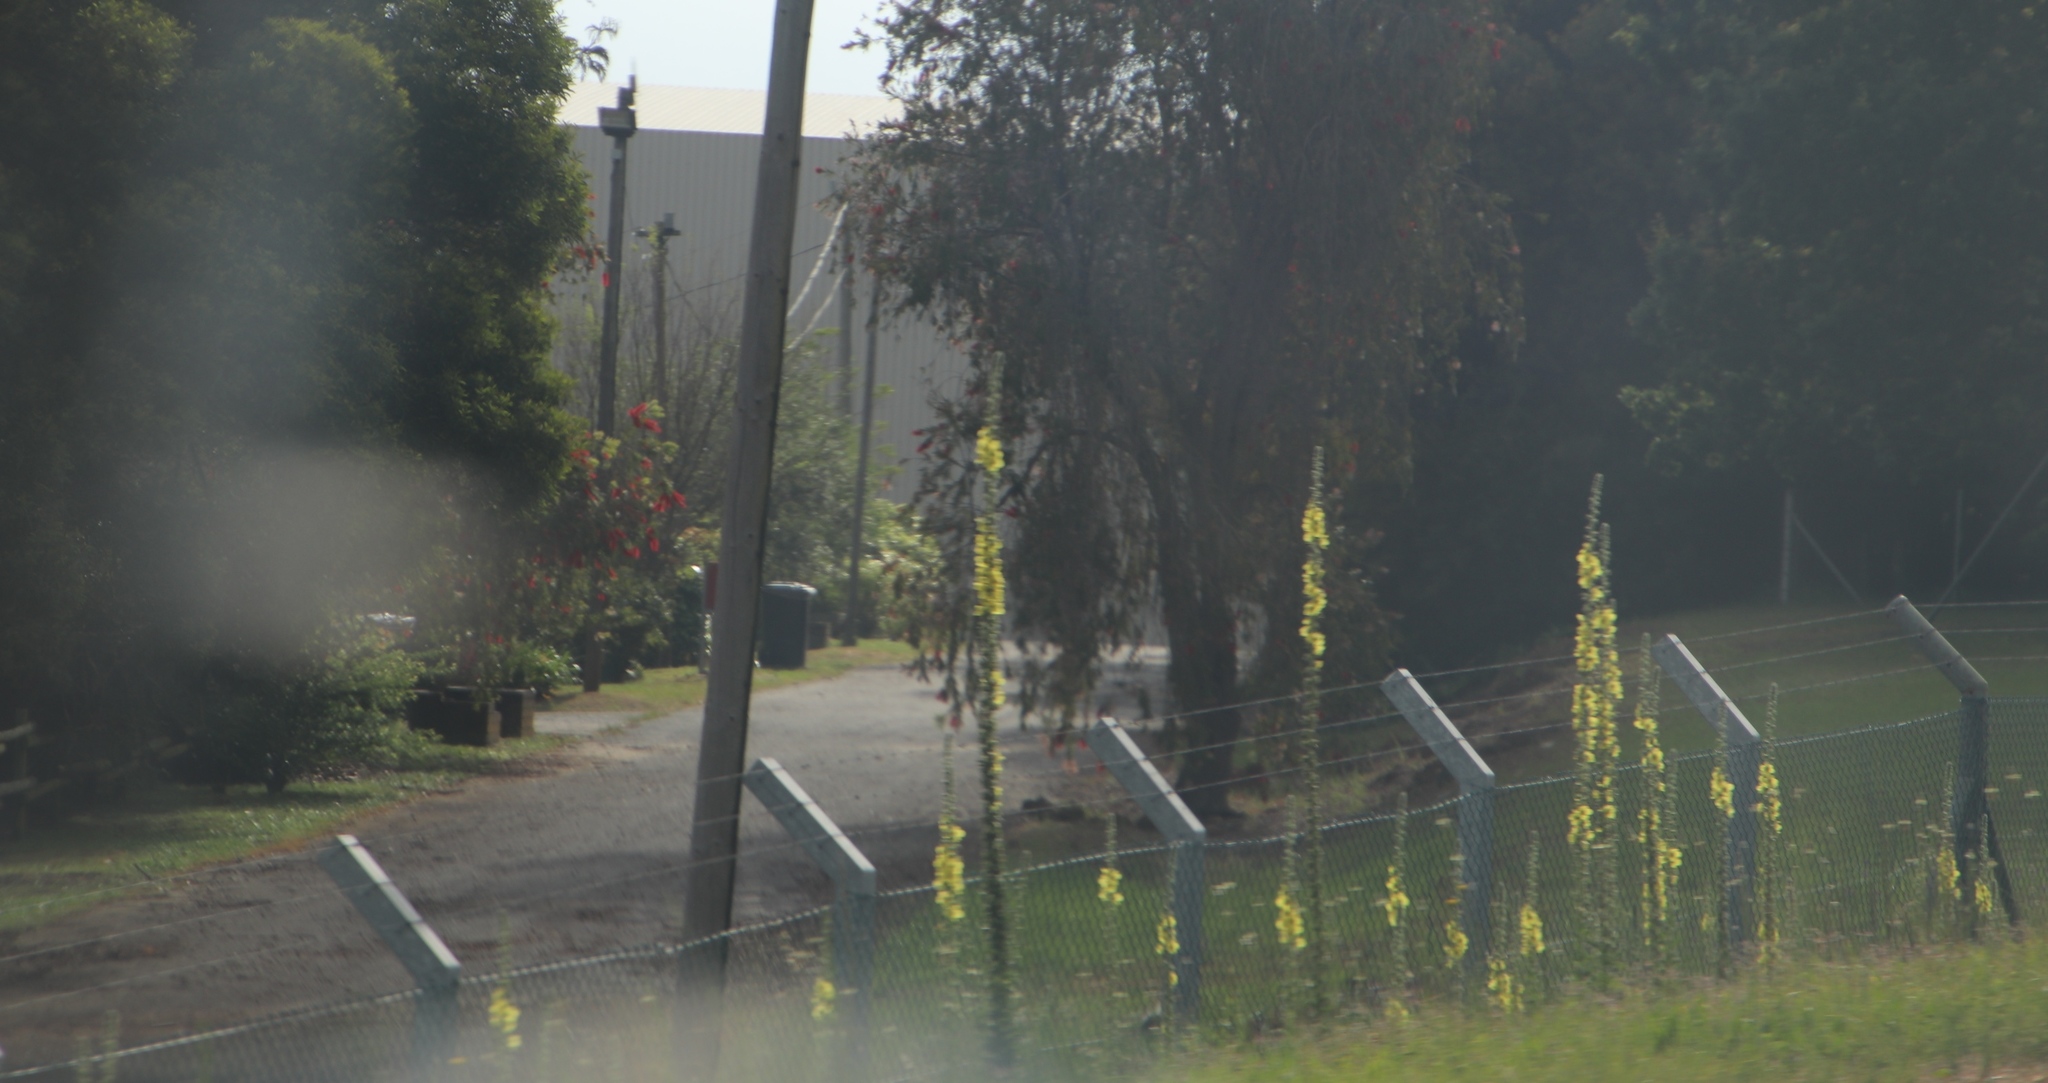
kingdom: Plantae
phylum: Tracheophyta
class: Magnoliopsida
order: Lamiales
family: Scrophulariaceae
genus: Verbascum
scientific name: Verbascum virgatum
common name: Twiggy mullein
